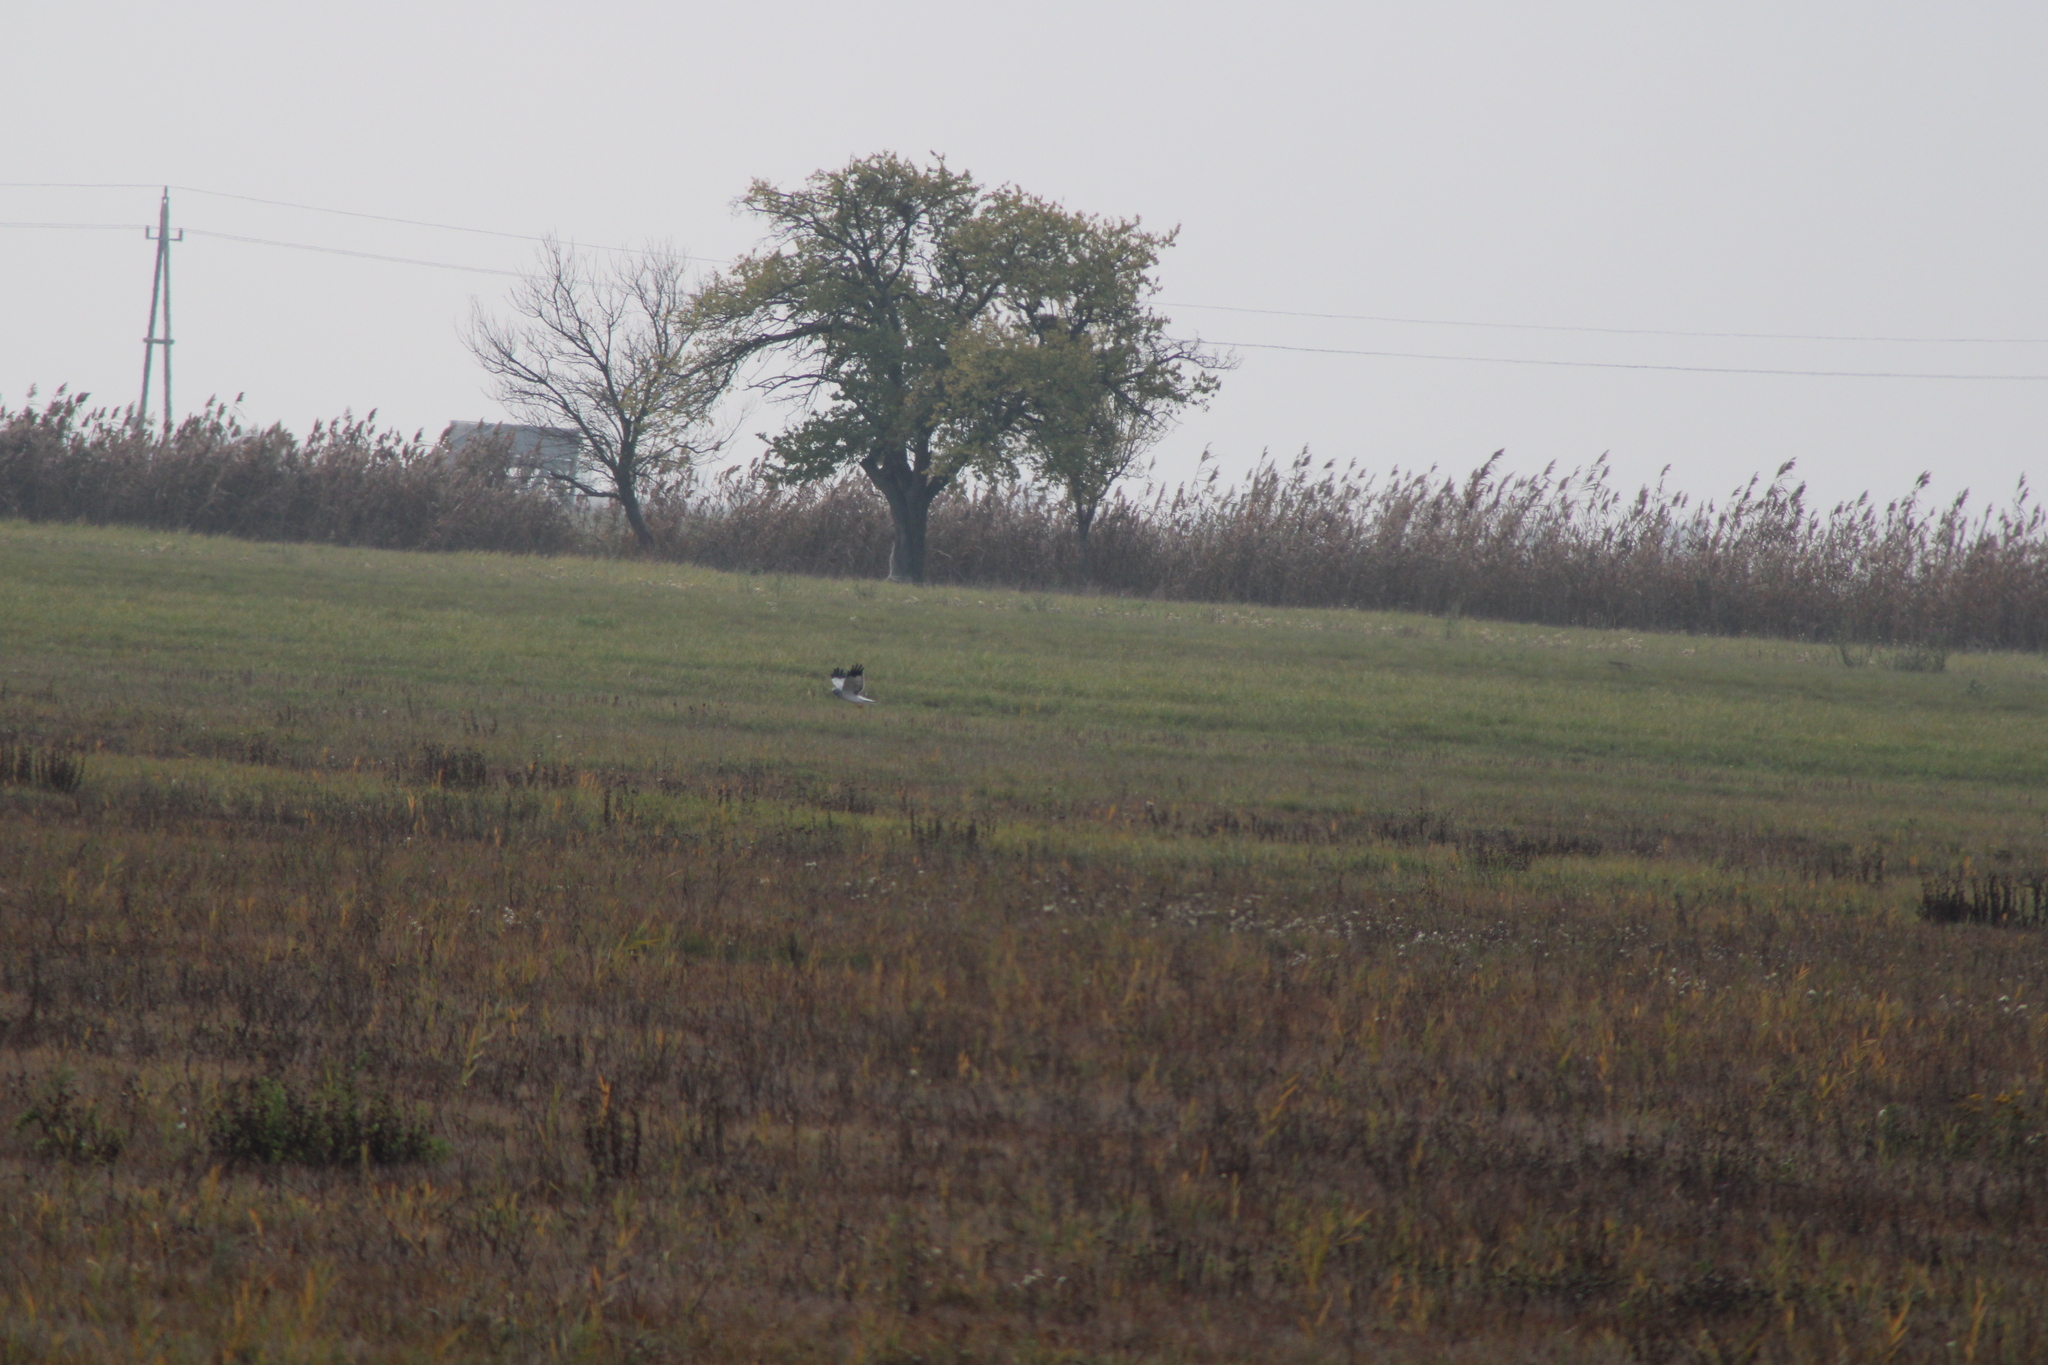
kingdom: Animalia
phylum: Chordata
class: Aves
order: Accipitriformes
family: Accipitridae
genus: Circus
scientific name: Circus cyaneus
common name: Hen harrier
